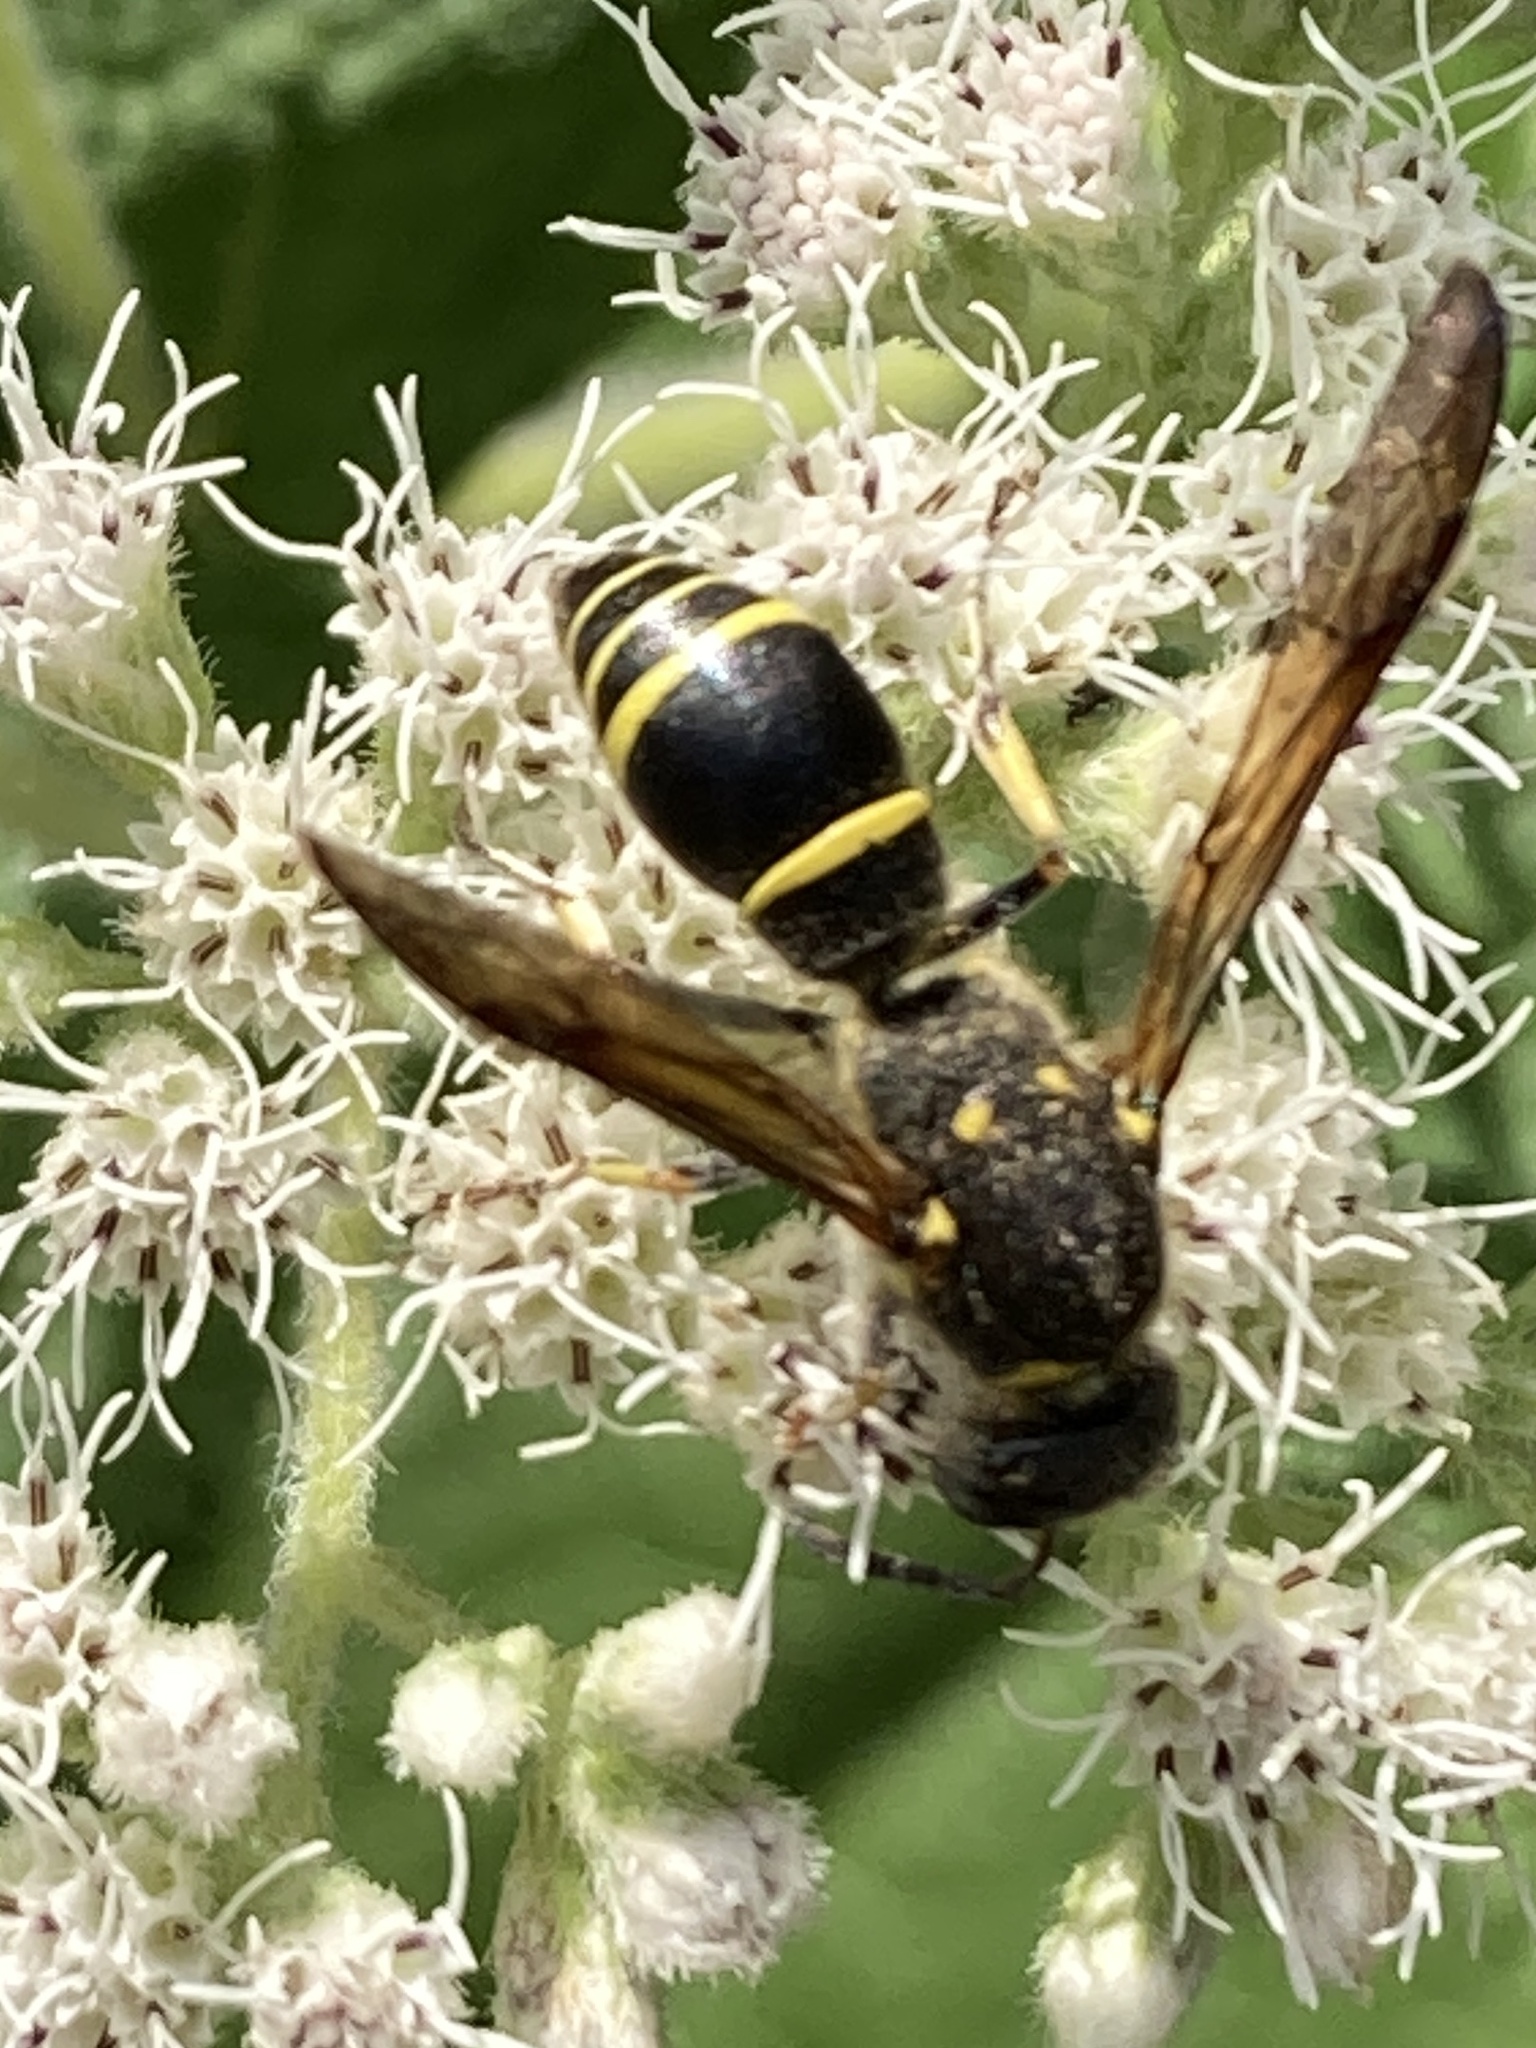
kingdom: Animalia
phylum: Arthropoda
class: Insecta
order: Hymenoptera
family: Vespidae
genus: Ancistrocerus
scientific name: Ancistrocerus
